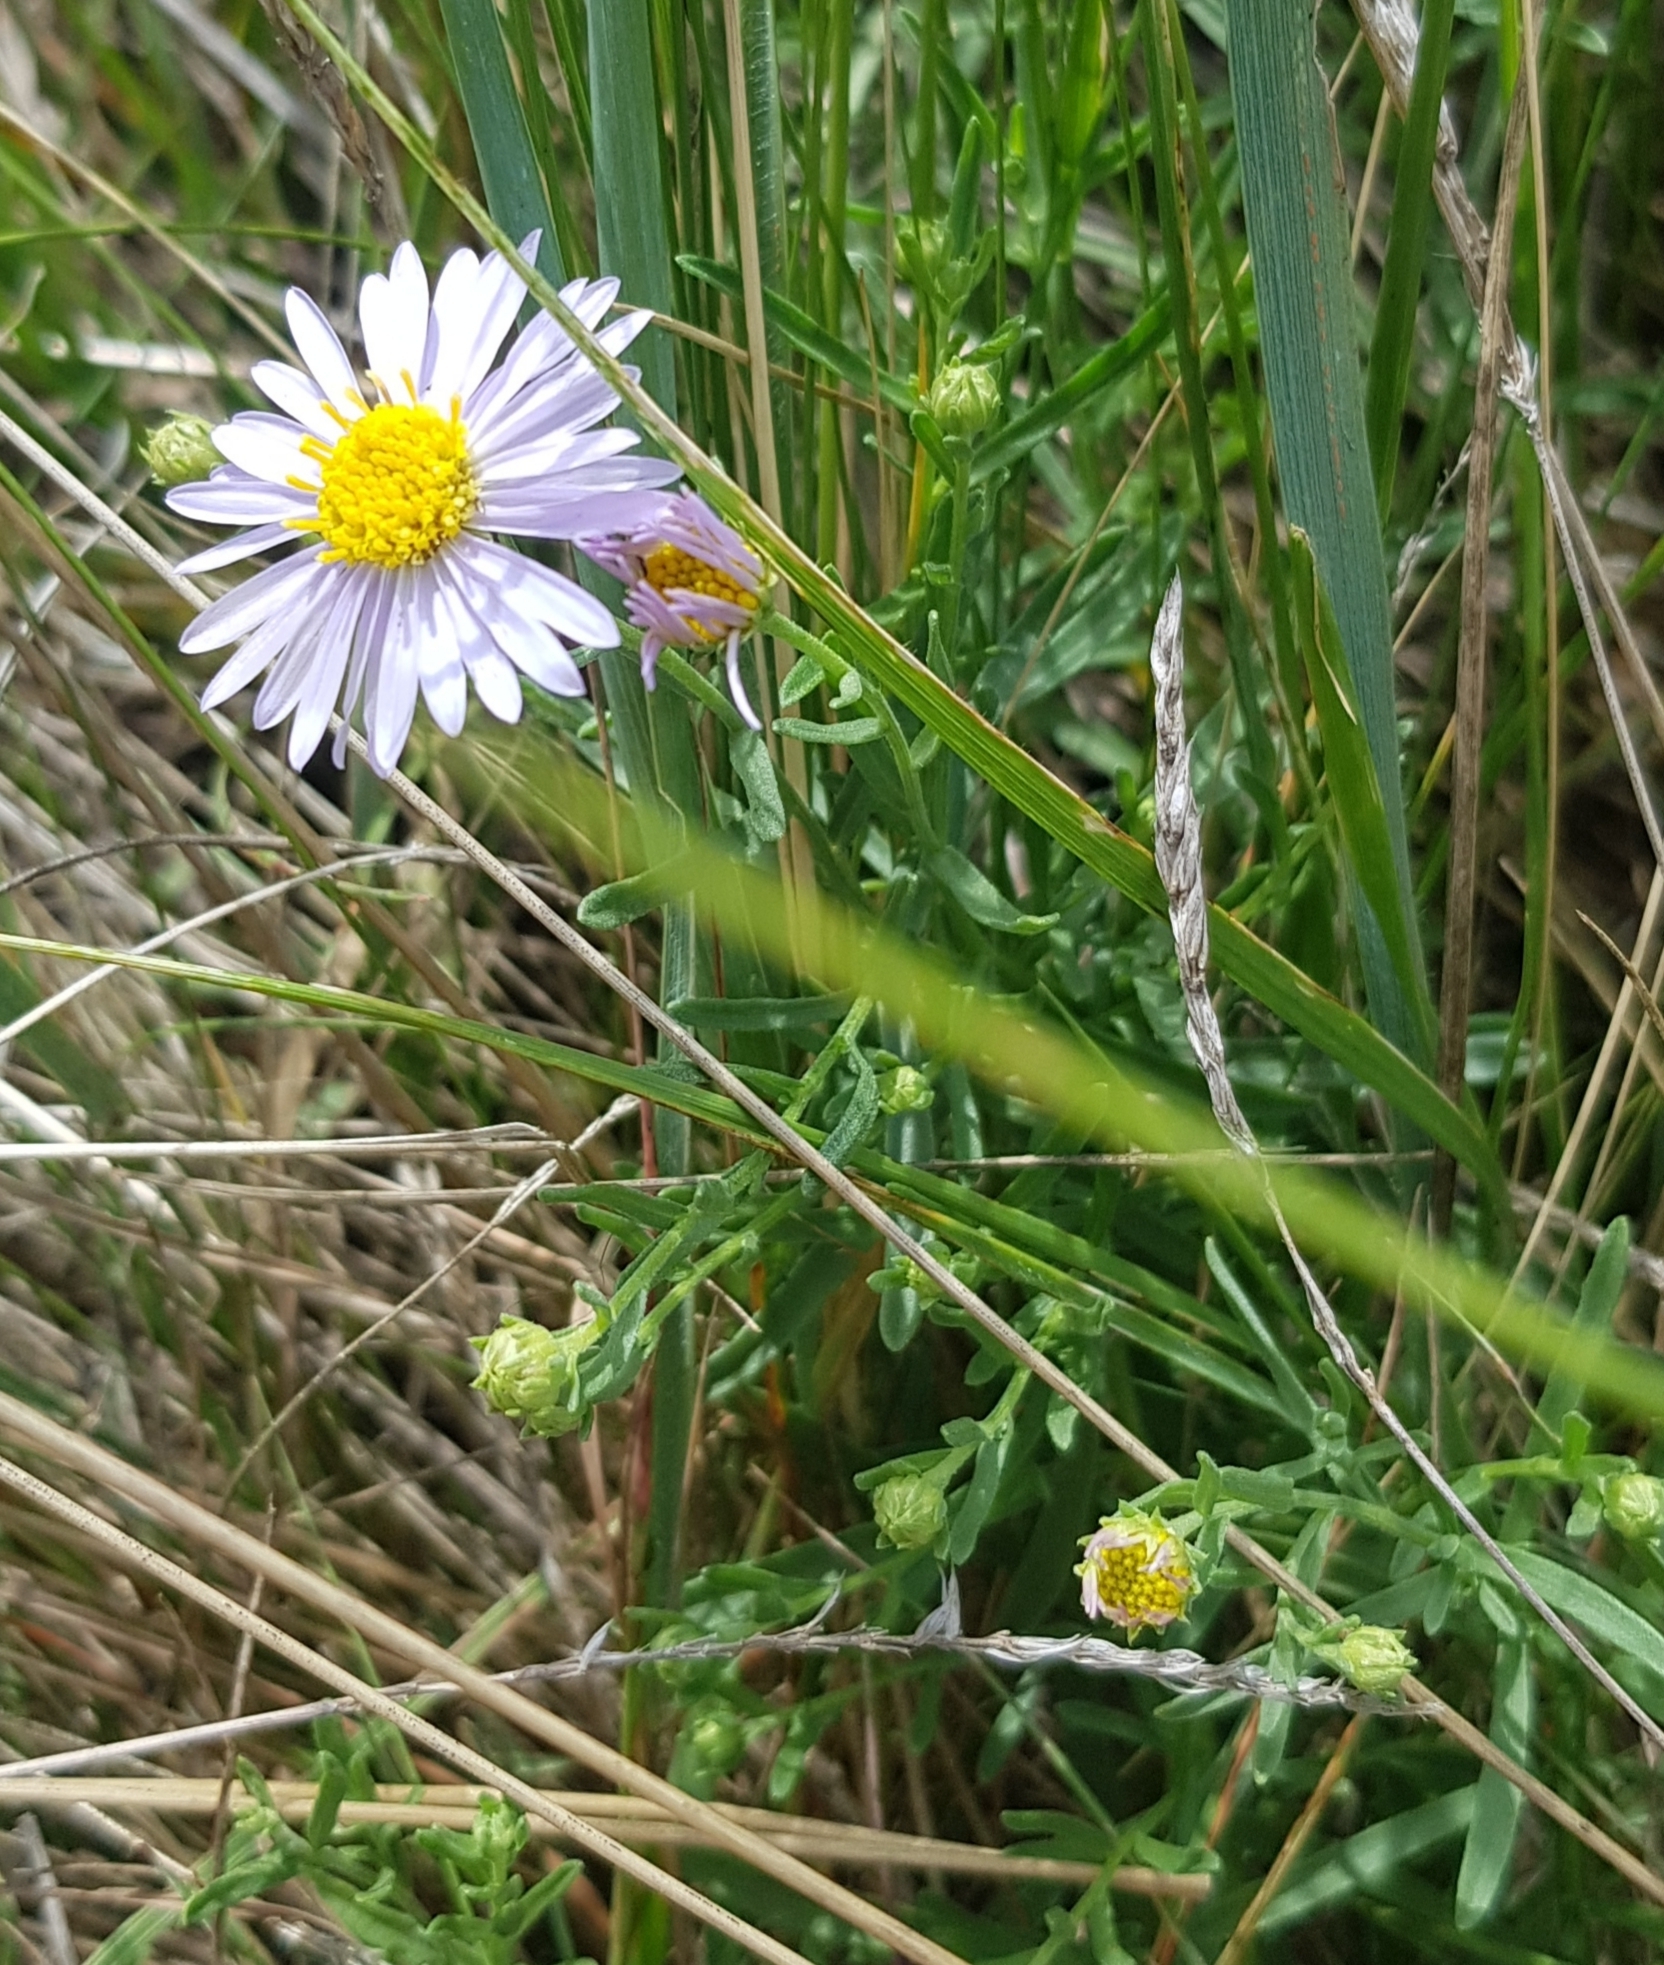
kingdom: Plantae
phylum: Tracheophyta
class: Magnoliopsida
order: Asterales
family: Asteraceae
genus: Aster
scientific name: Aster biennis
